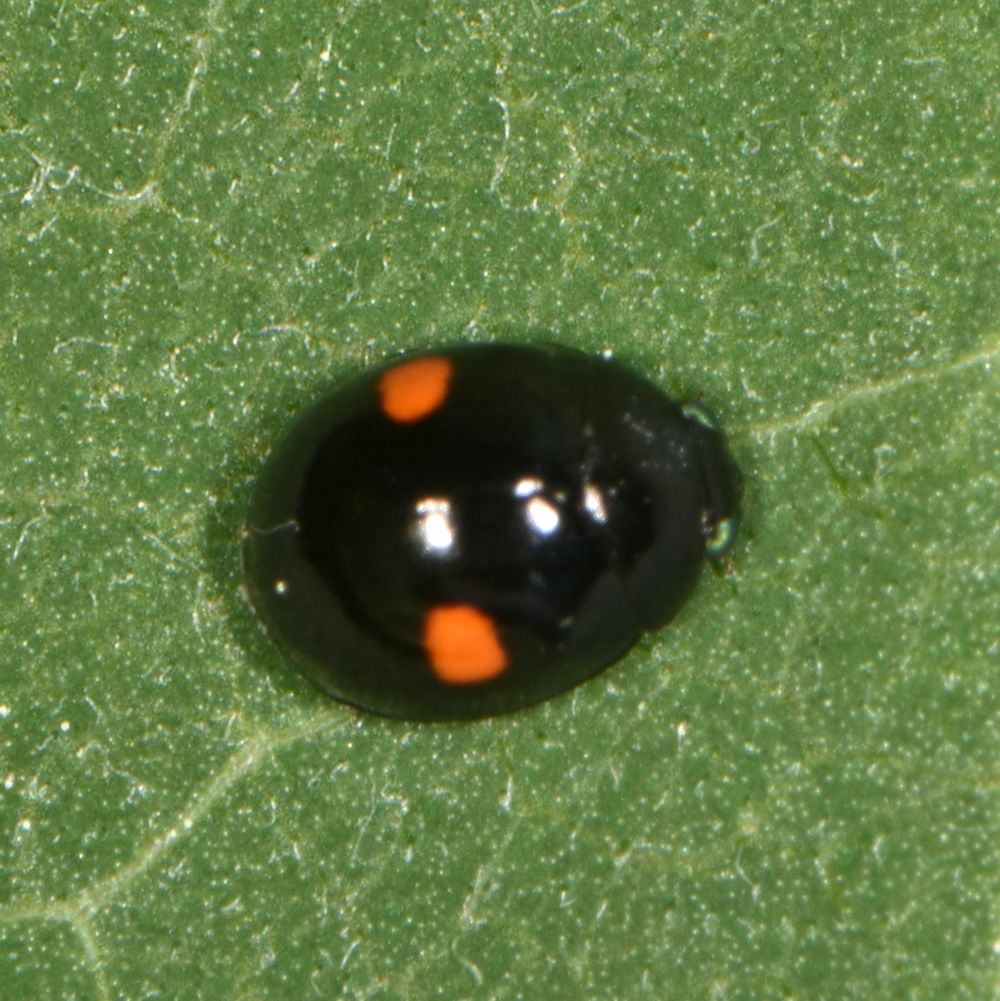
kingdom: Animalia
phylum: Arthropoda
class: Insecta
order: Coleoptera
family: Coccinellidae
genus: Chilocorus
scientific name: Chilocorus stigma
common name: Twicestabbed lady beetle
